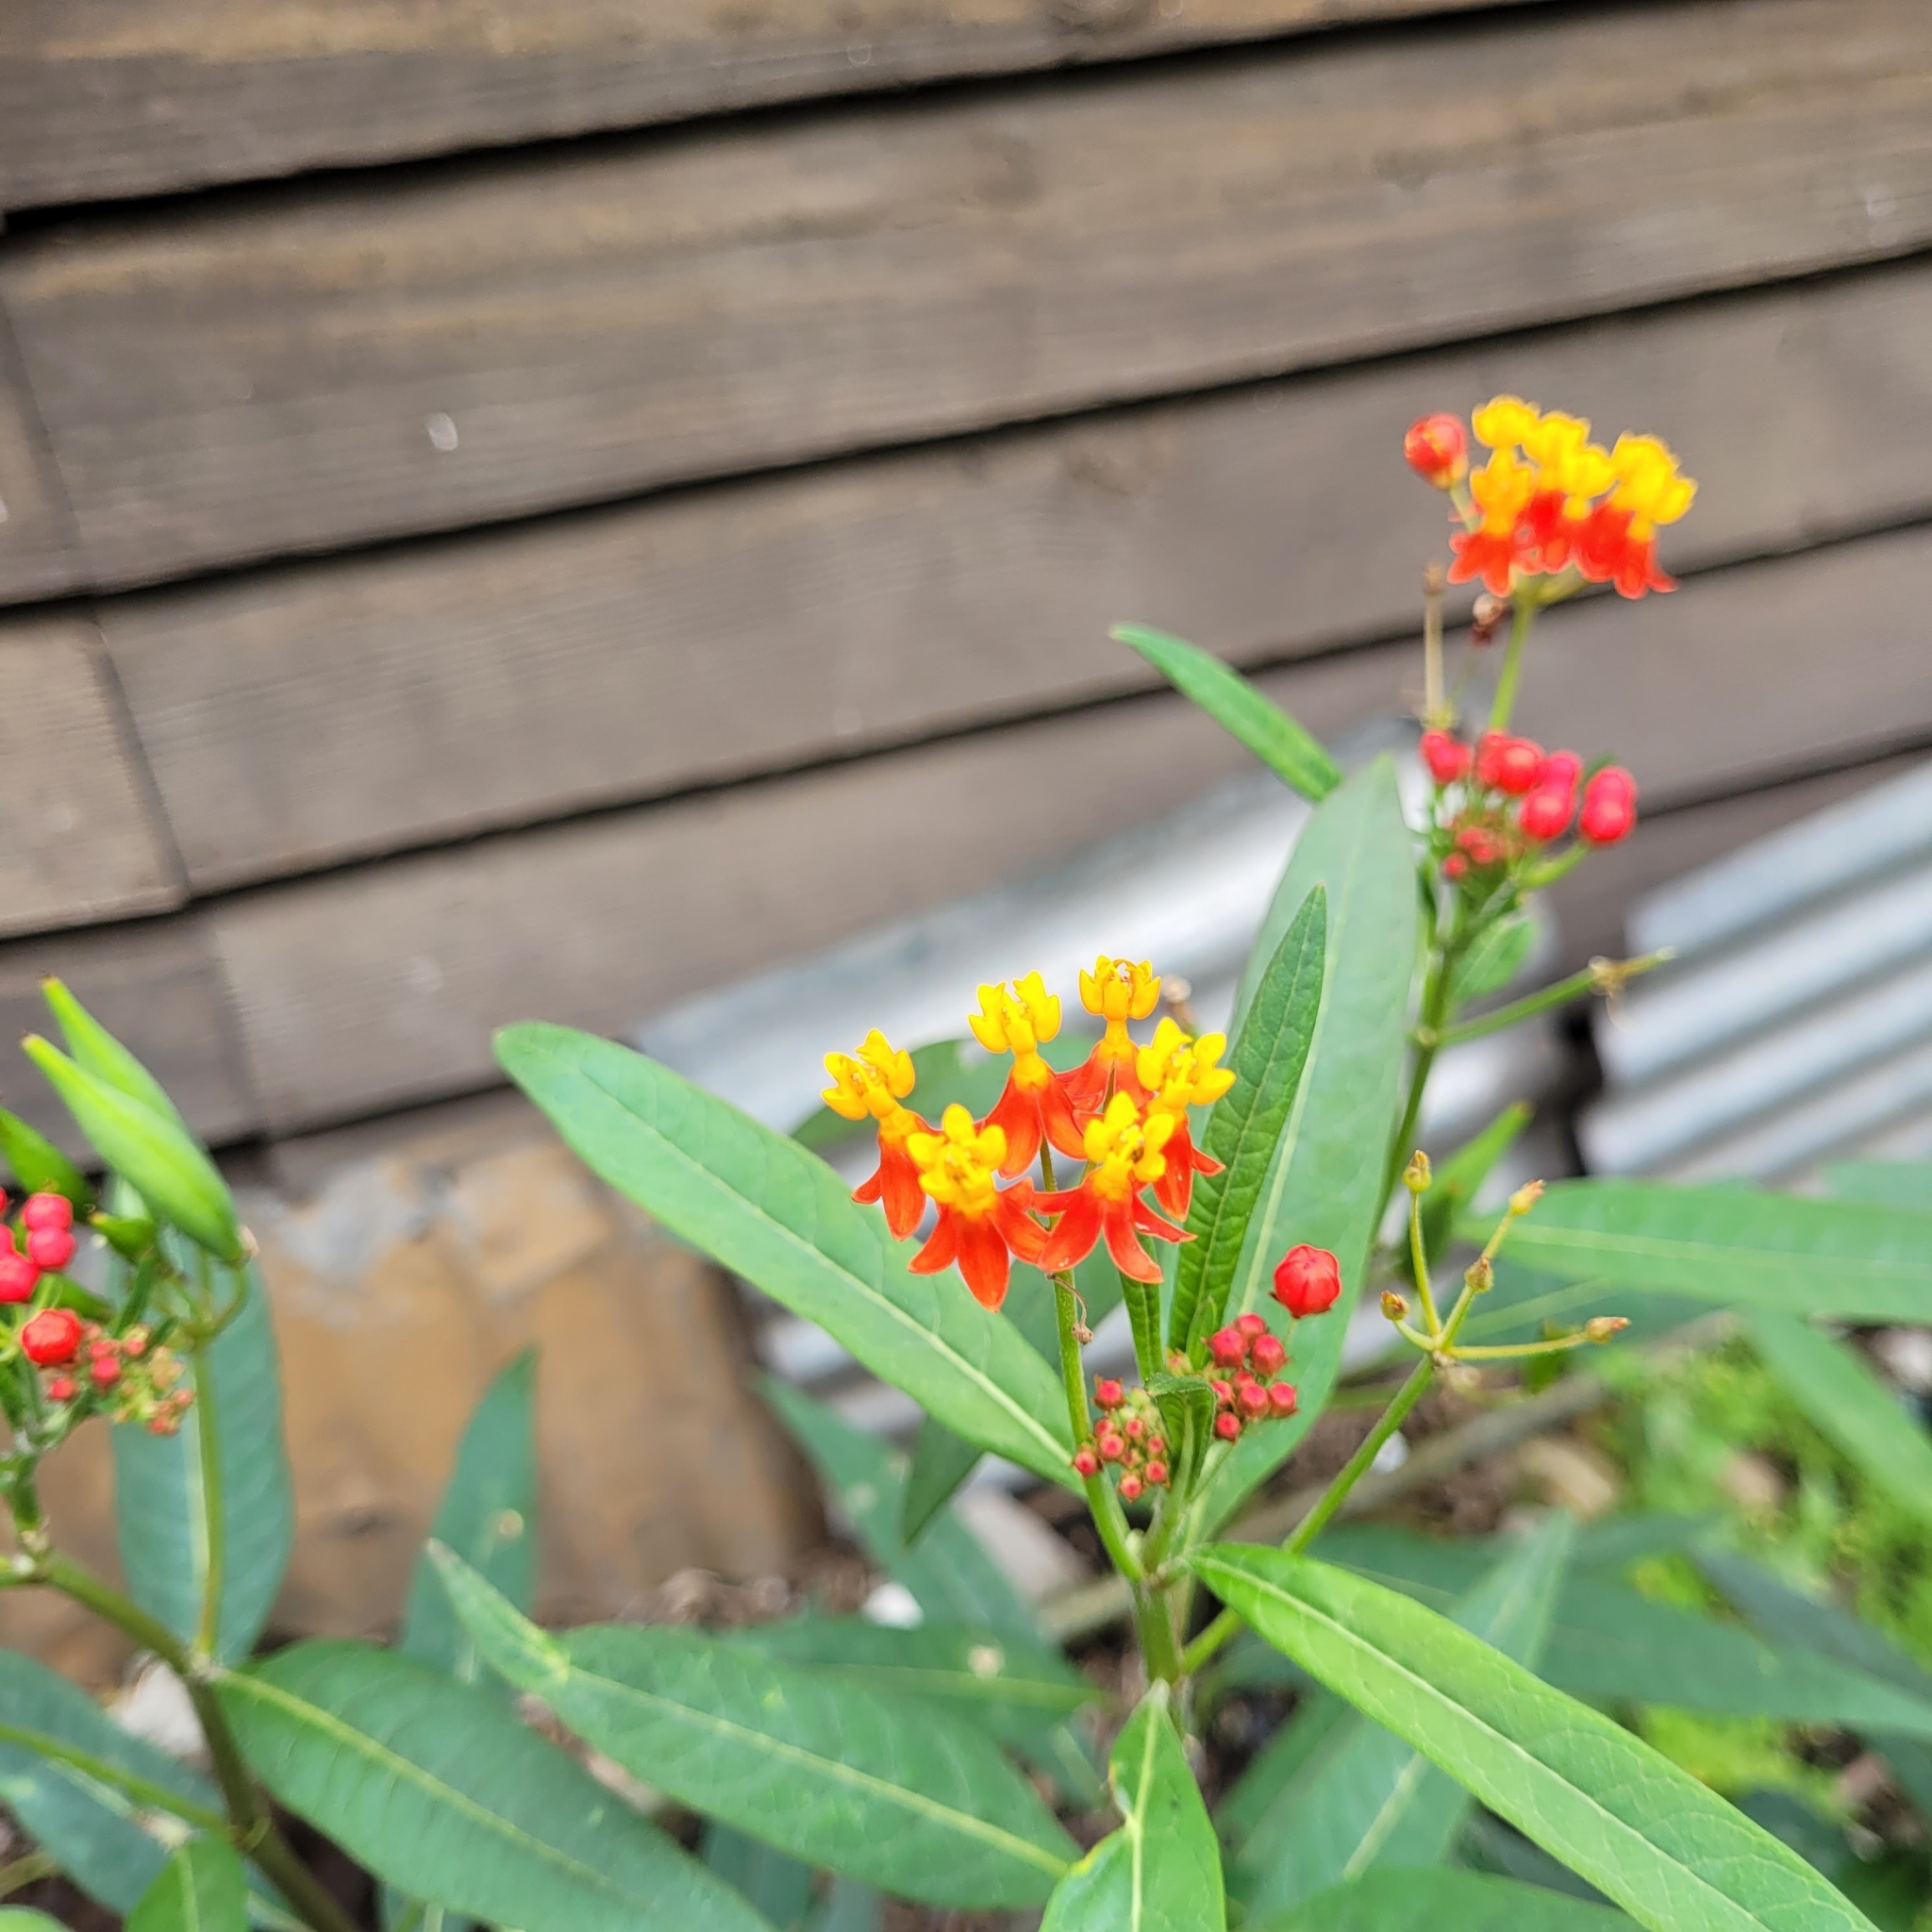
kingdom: Plantae
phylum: Tracheophyta
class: Magnoliopsida
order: Gentianales
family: Apocynaceae
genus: Asclepias
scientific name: Asclepias curassavica
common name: Bloodflower
